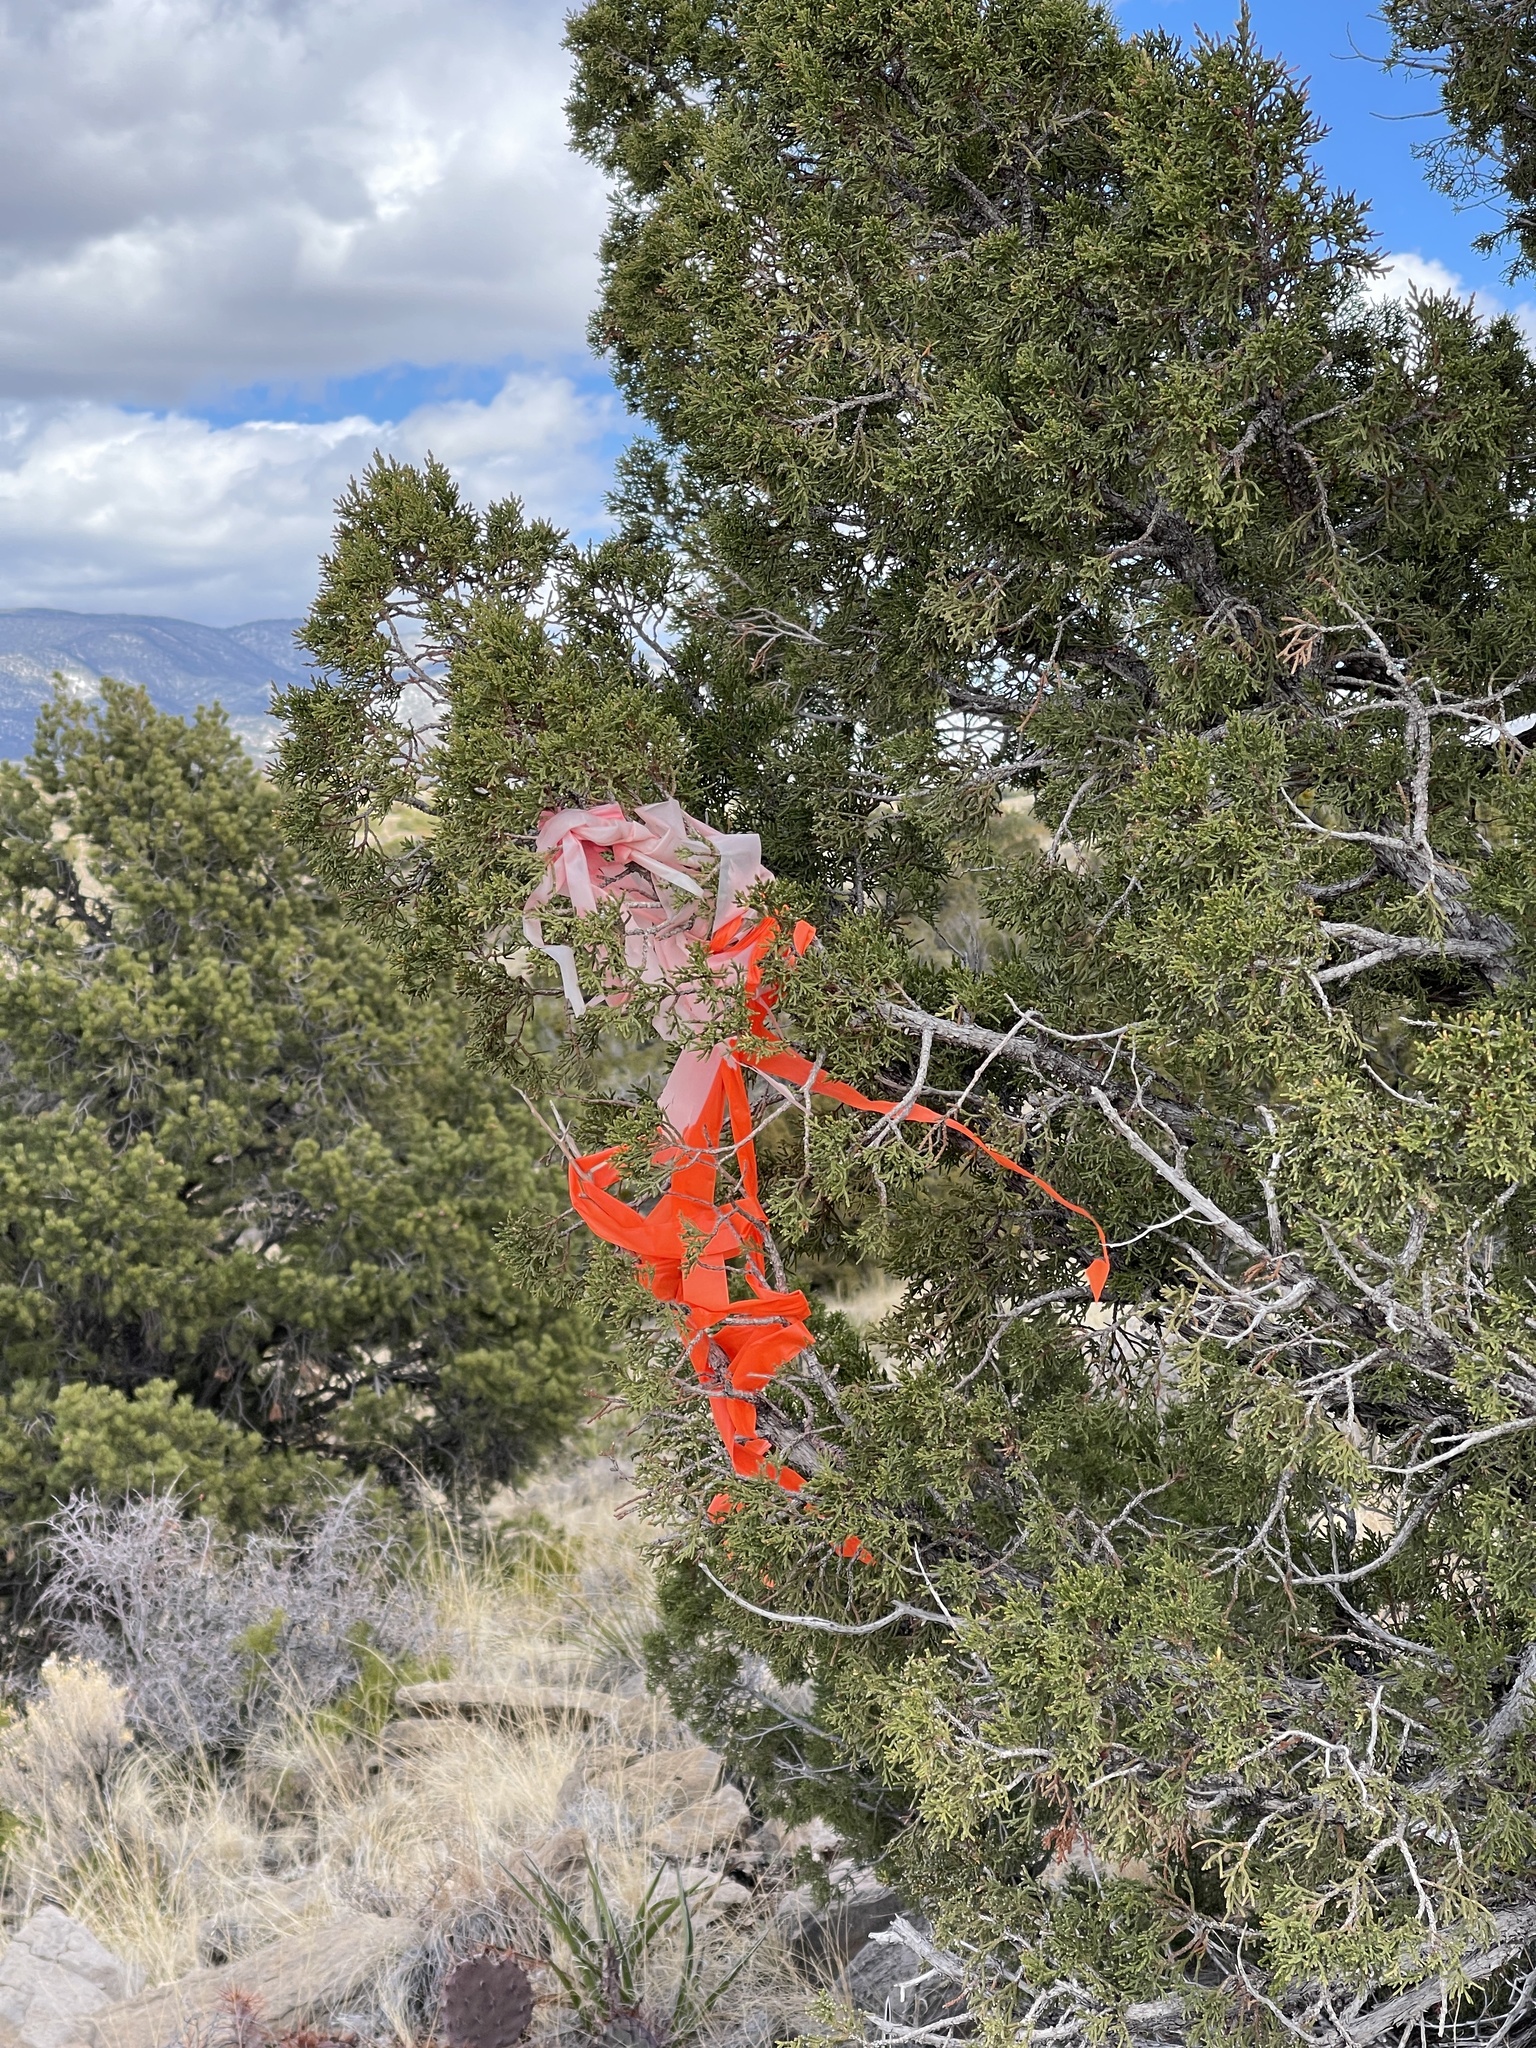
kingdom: Plantae
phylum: Tracheophyta
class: Pinopsida
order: Pinales
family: Cupressaceae
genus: Juniperus
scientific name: Juniperus monosperma
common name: One-seed juniper
